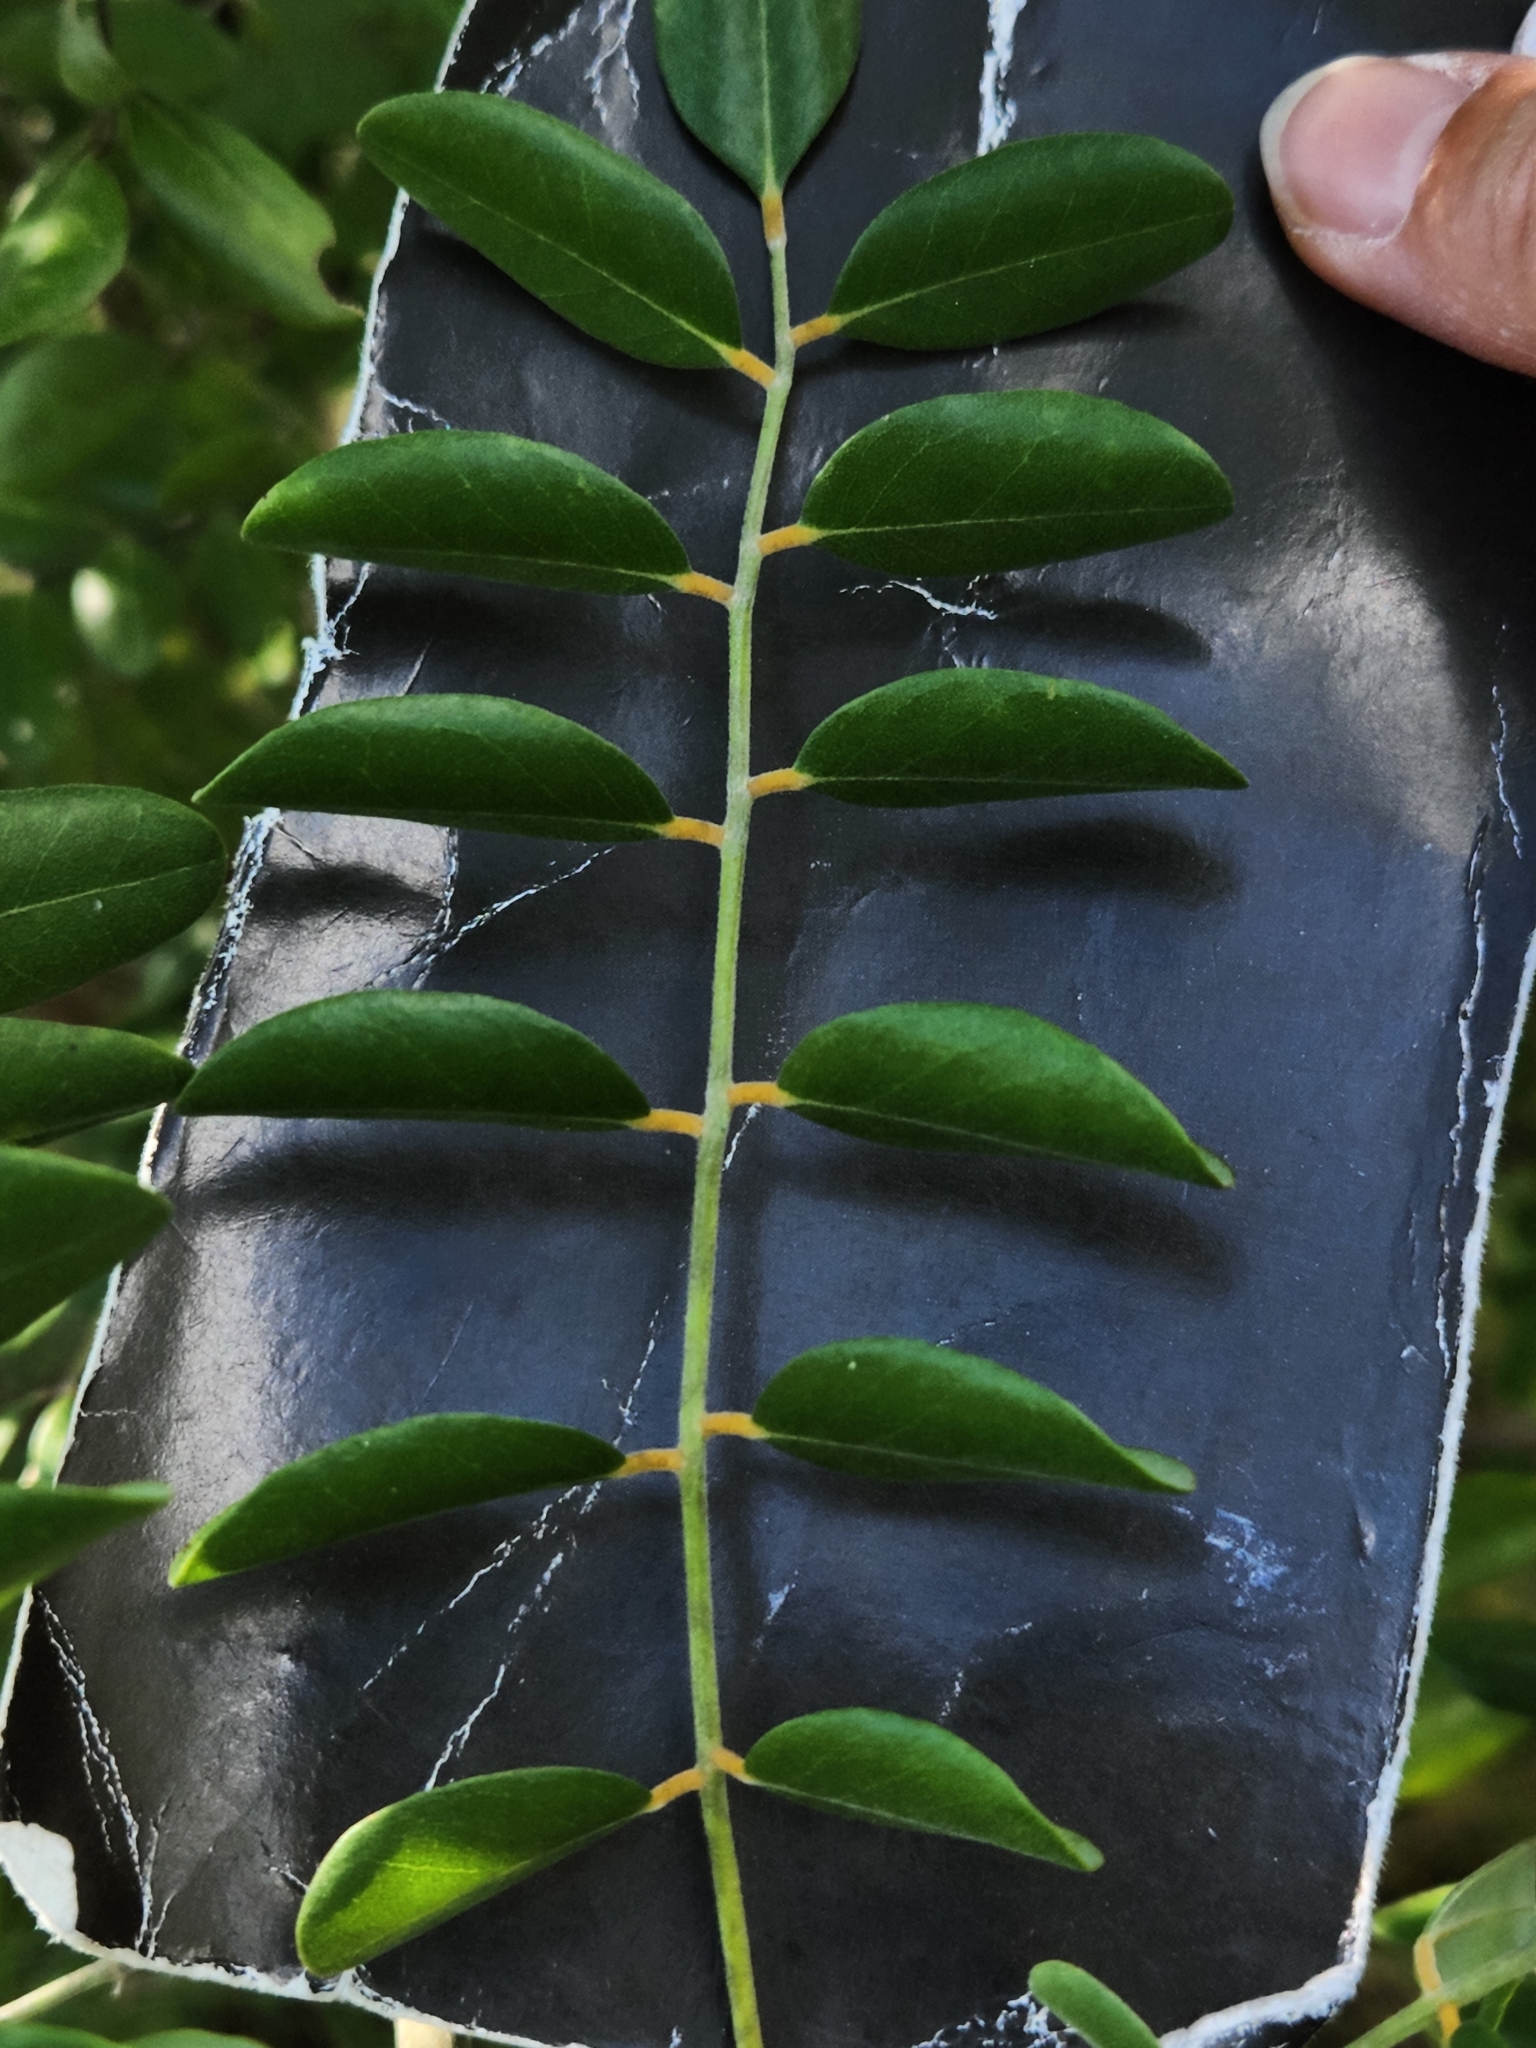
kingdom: Plantae
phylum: Tracheophyta
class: Magnoliopsida
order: Fabales
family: Fabaceae
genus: Sophora
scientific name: Sophora tomentosa
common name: Yellow necklacepod
